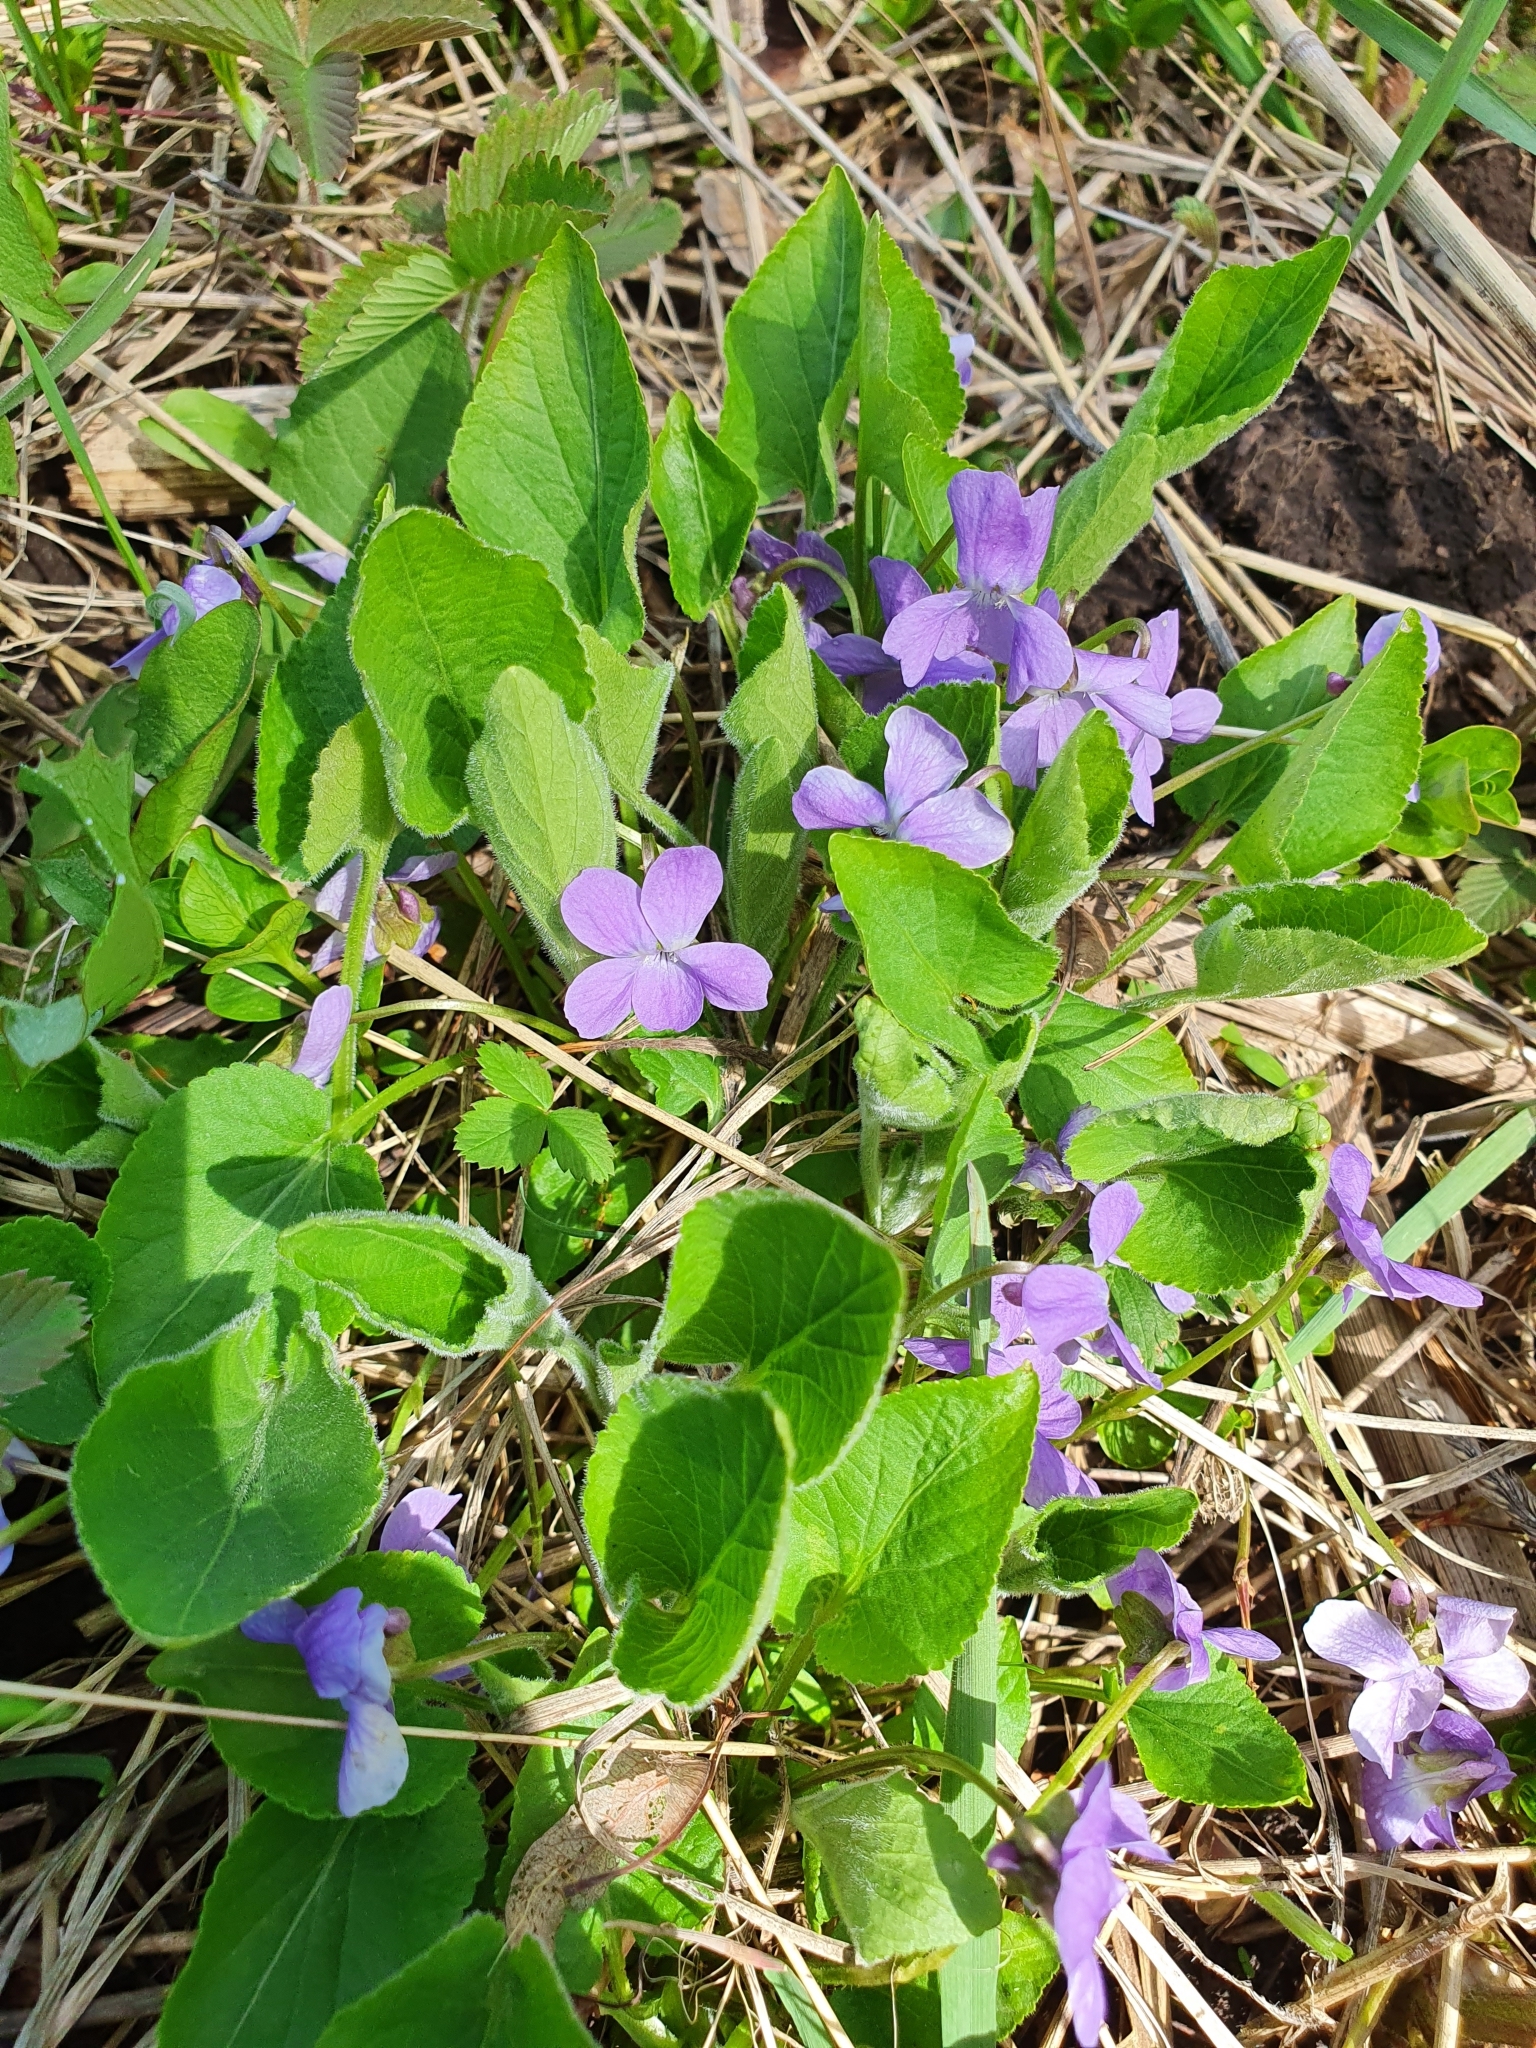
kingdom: Plantae
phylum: Tracheophyta
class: Magnoliopsida
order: Malpighiales
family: Violaceae
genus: Viola
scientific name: Viola hirta
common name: Hairy violet
